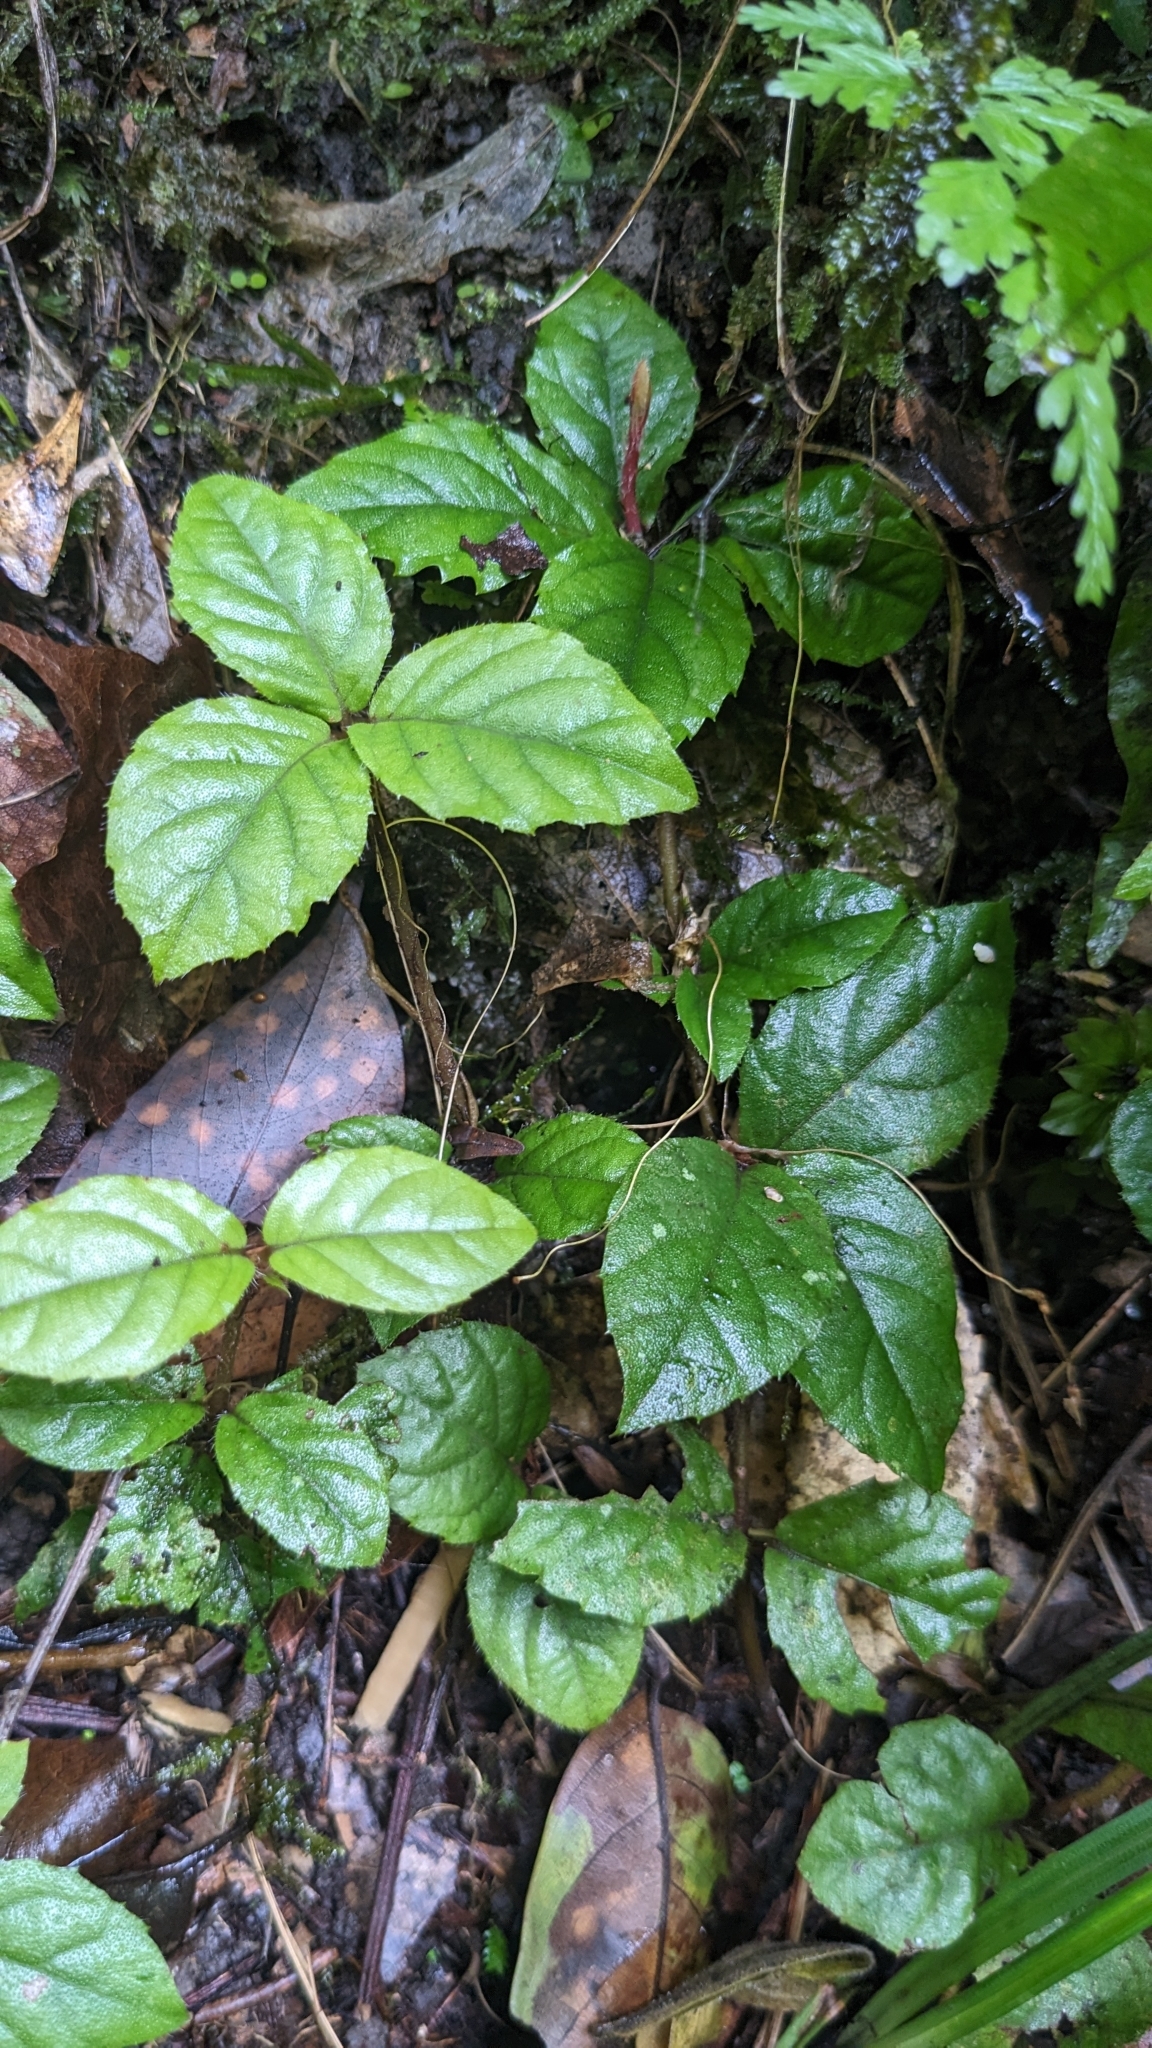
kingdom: Plantae
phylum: Tracheophyta
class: Magnoliopsida
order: Ericales
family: Primulaceae
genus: Ardisia
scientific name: Ardisia pusilla
